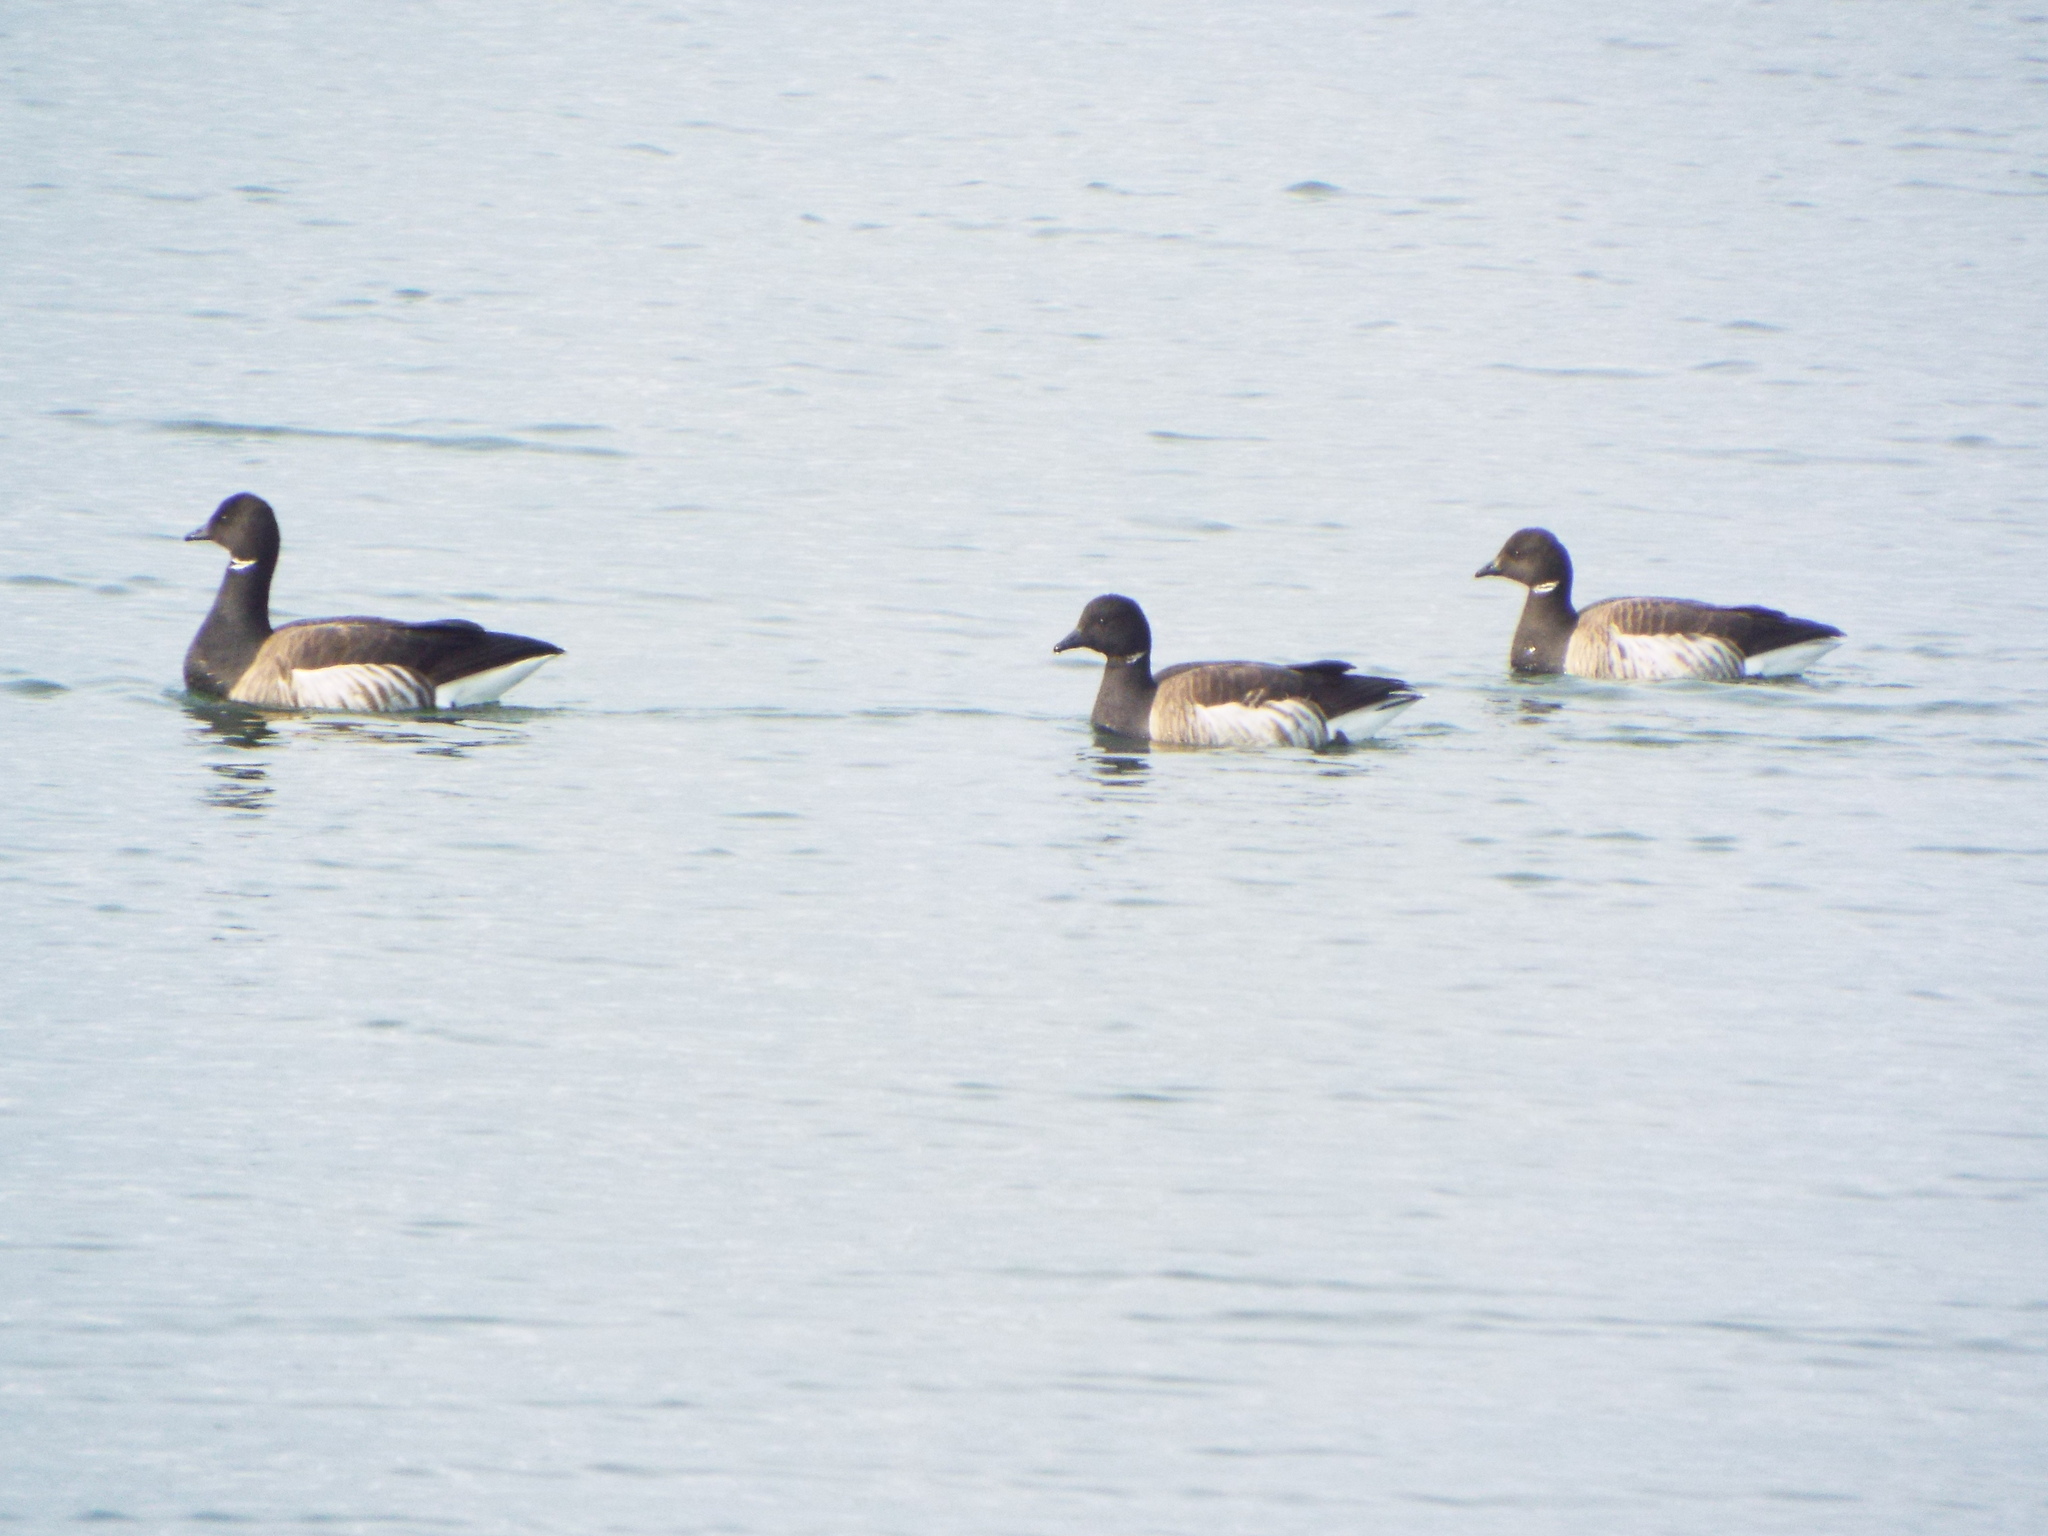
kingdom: Animalia
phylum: Chordata
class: Aves
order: Anseriformes
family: Anatidae
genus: Branta
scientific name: Branta bernicla
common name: Brant goose
